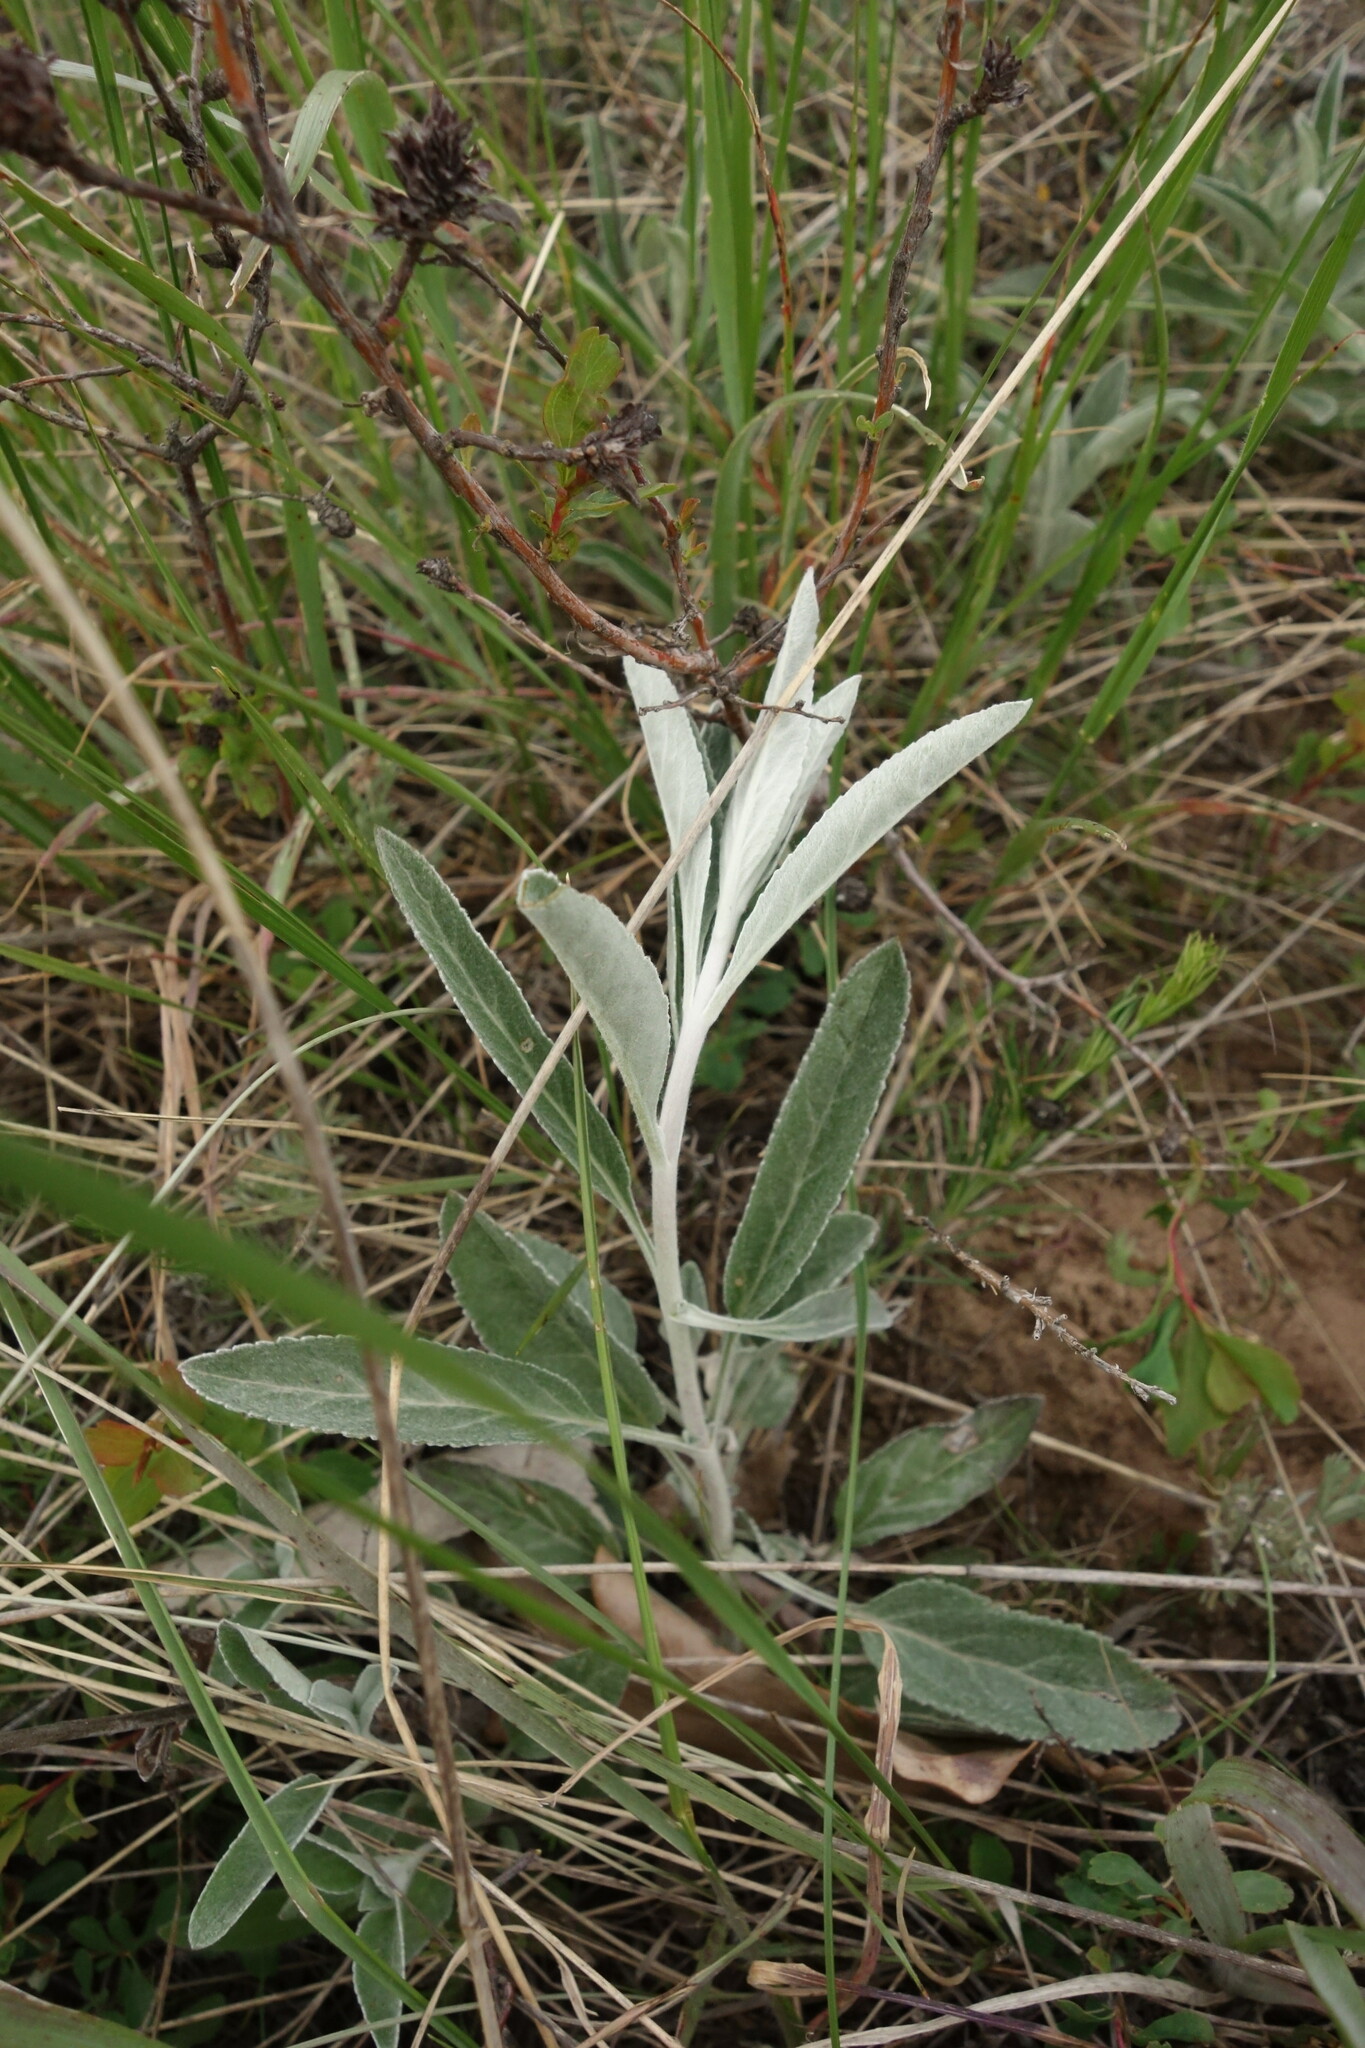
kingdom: Plantae
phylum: Tracheophyta
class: Magnoliopsida
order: Lamiales
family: Plantaginaceae
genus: Veronica
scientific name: Veronica incana
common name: Silver speedwell
